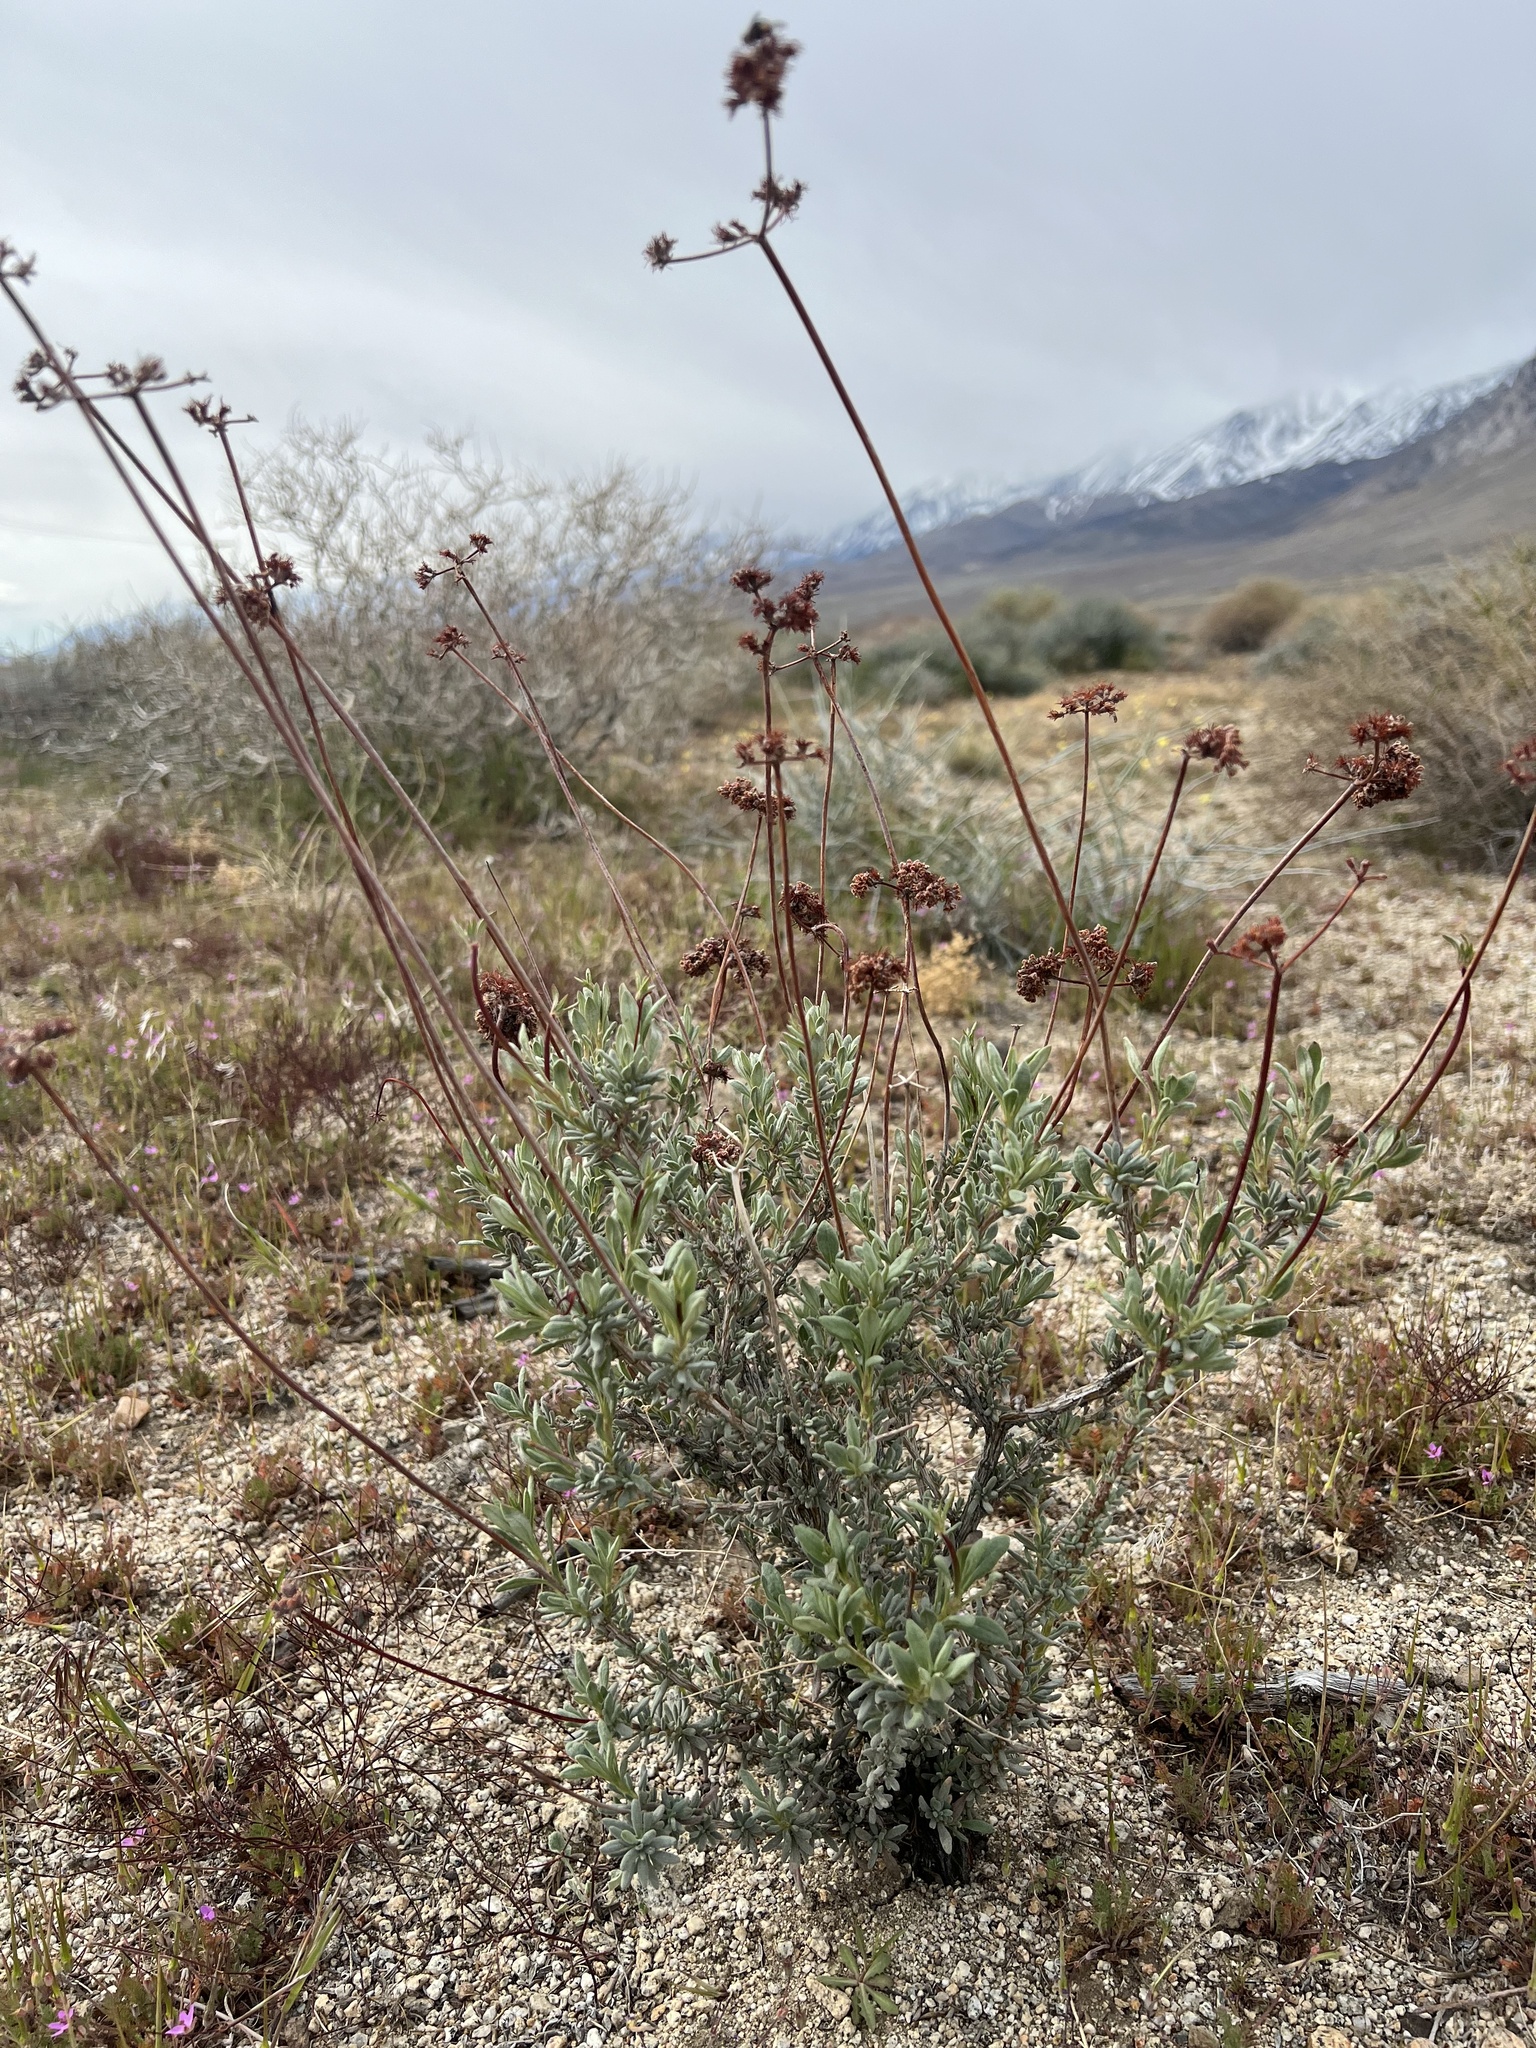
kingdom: Plantae
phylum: Tracheophyta
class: Magnoliopsida
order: Caryophyllales
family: Polygonaceae
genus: Eriogonum
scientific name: Eriogonum fasciculatum
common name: California wild buckwheat
